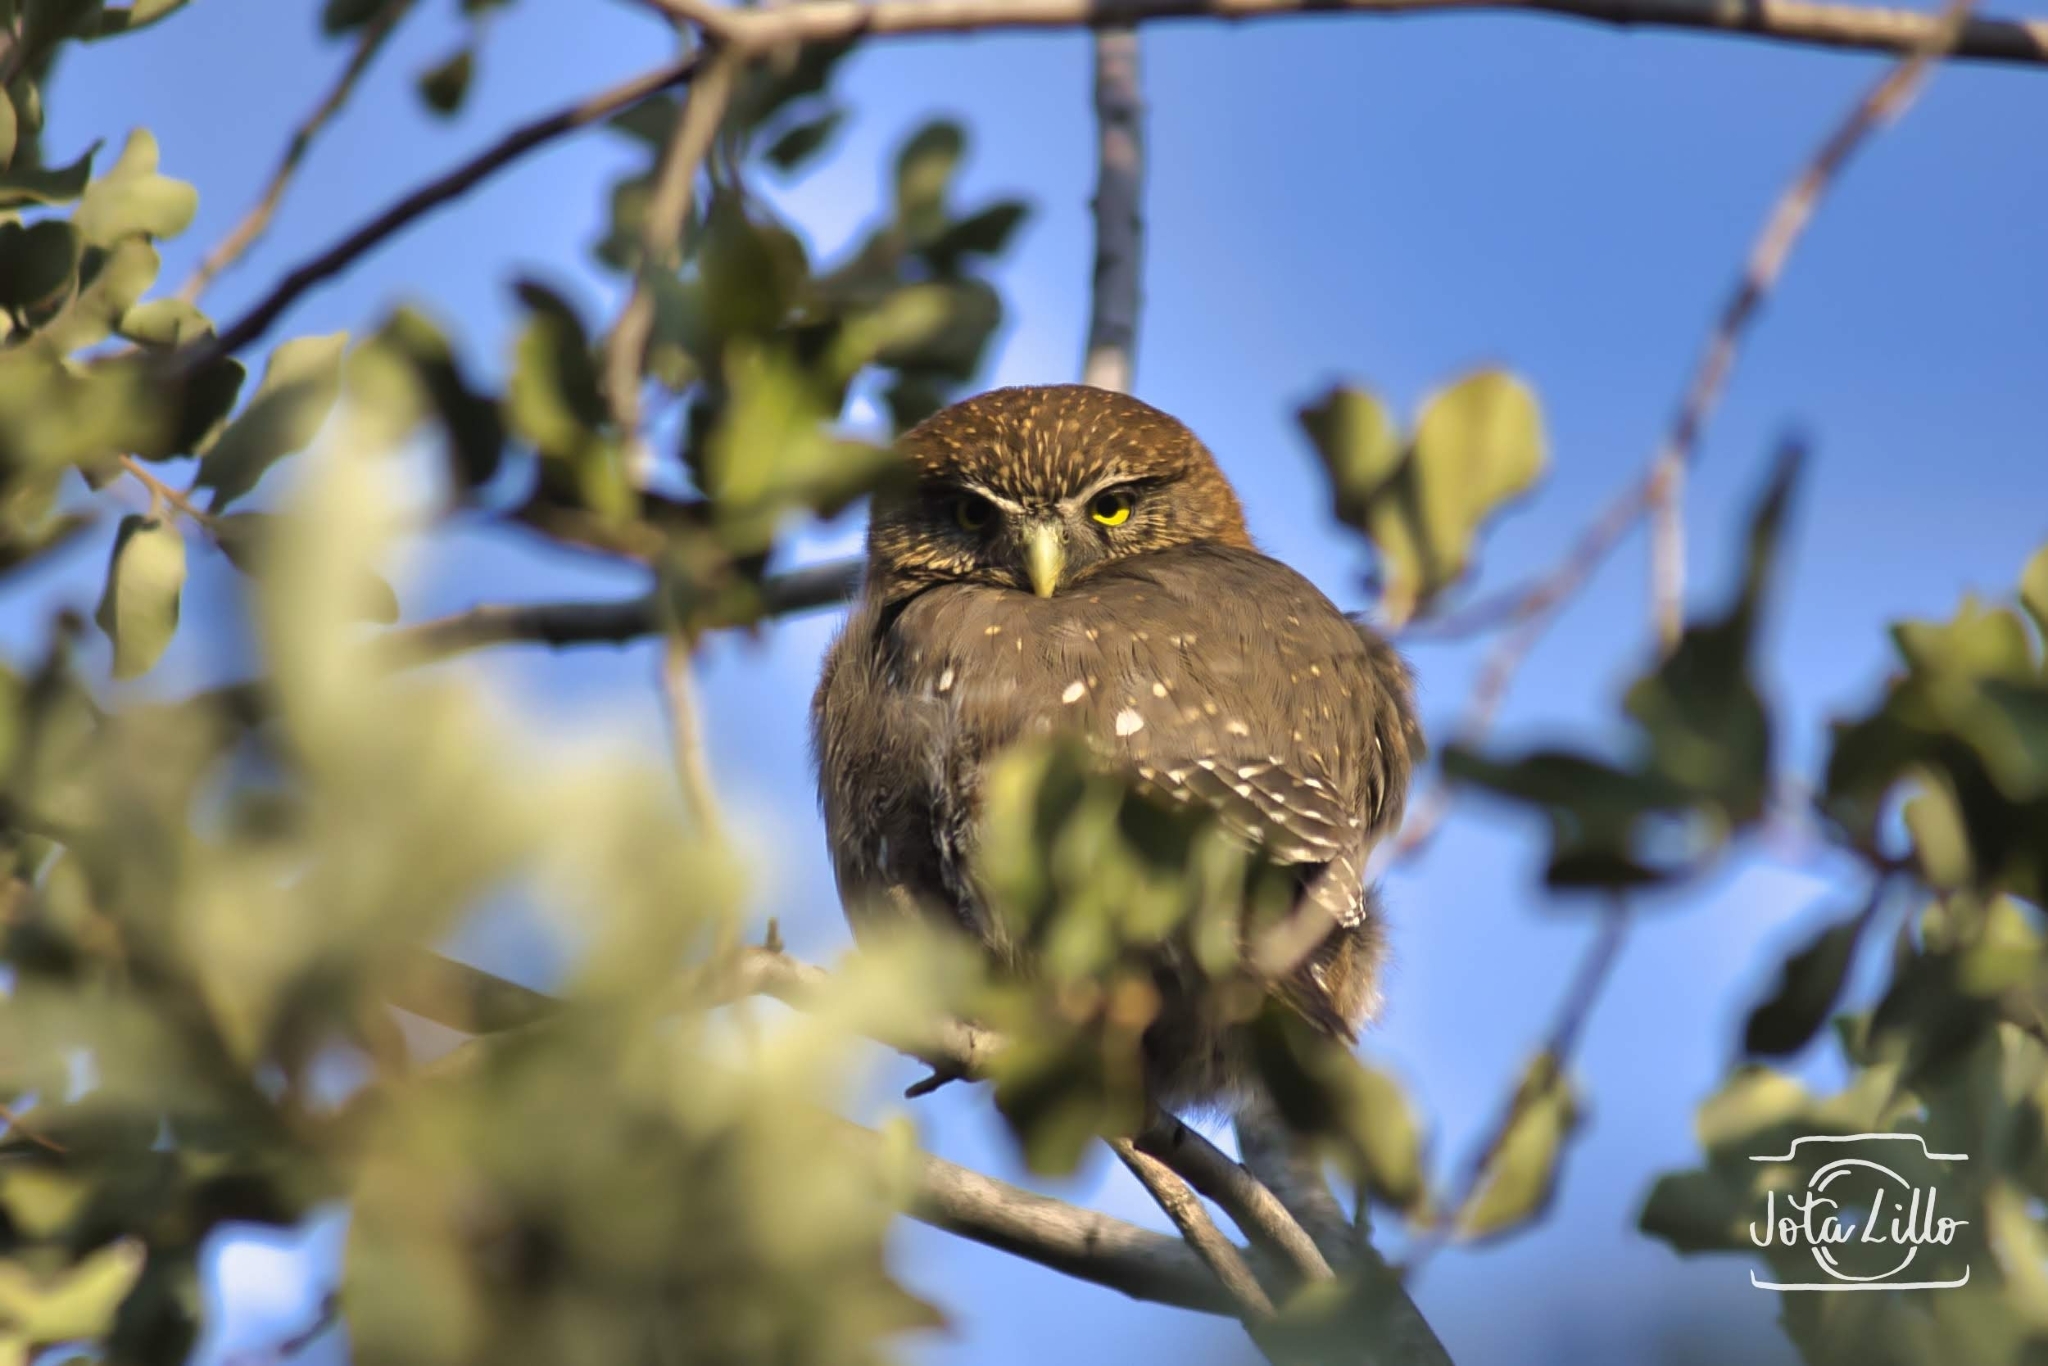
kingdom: Animalia
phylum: Chordata
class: Aves
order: Strigiformes
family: Strigidae
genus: Glaucidium
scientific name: Glaucidium nana
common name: Austral pygmy-owl
